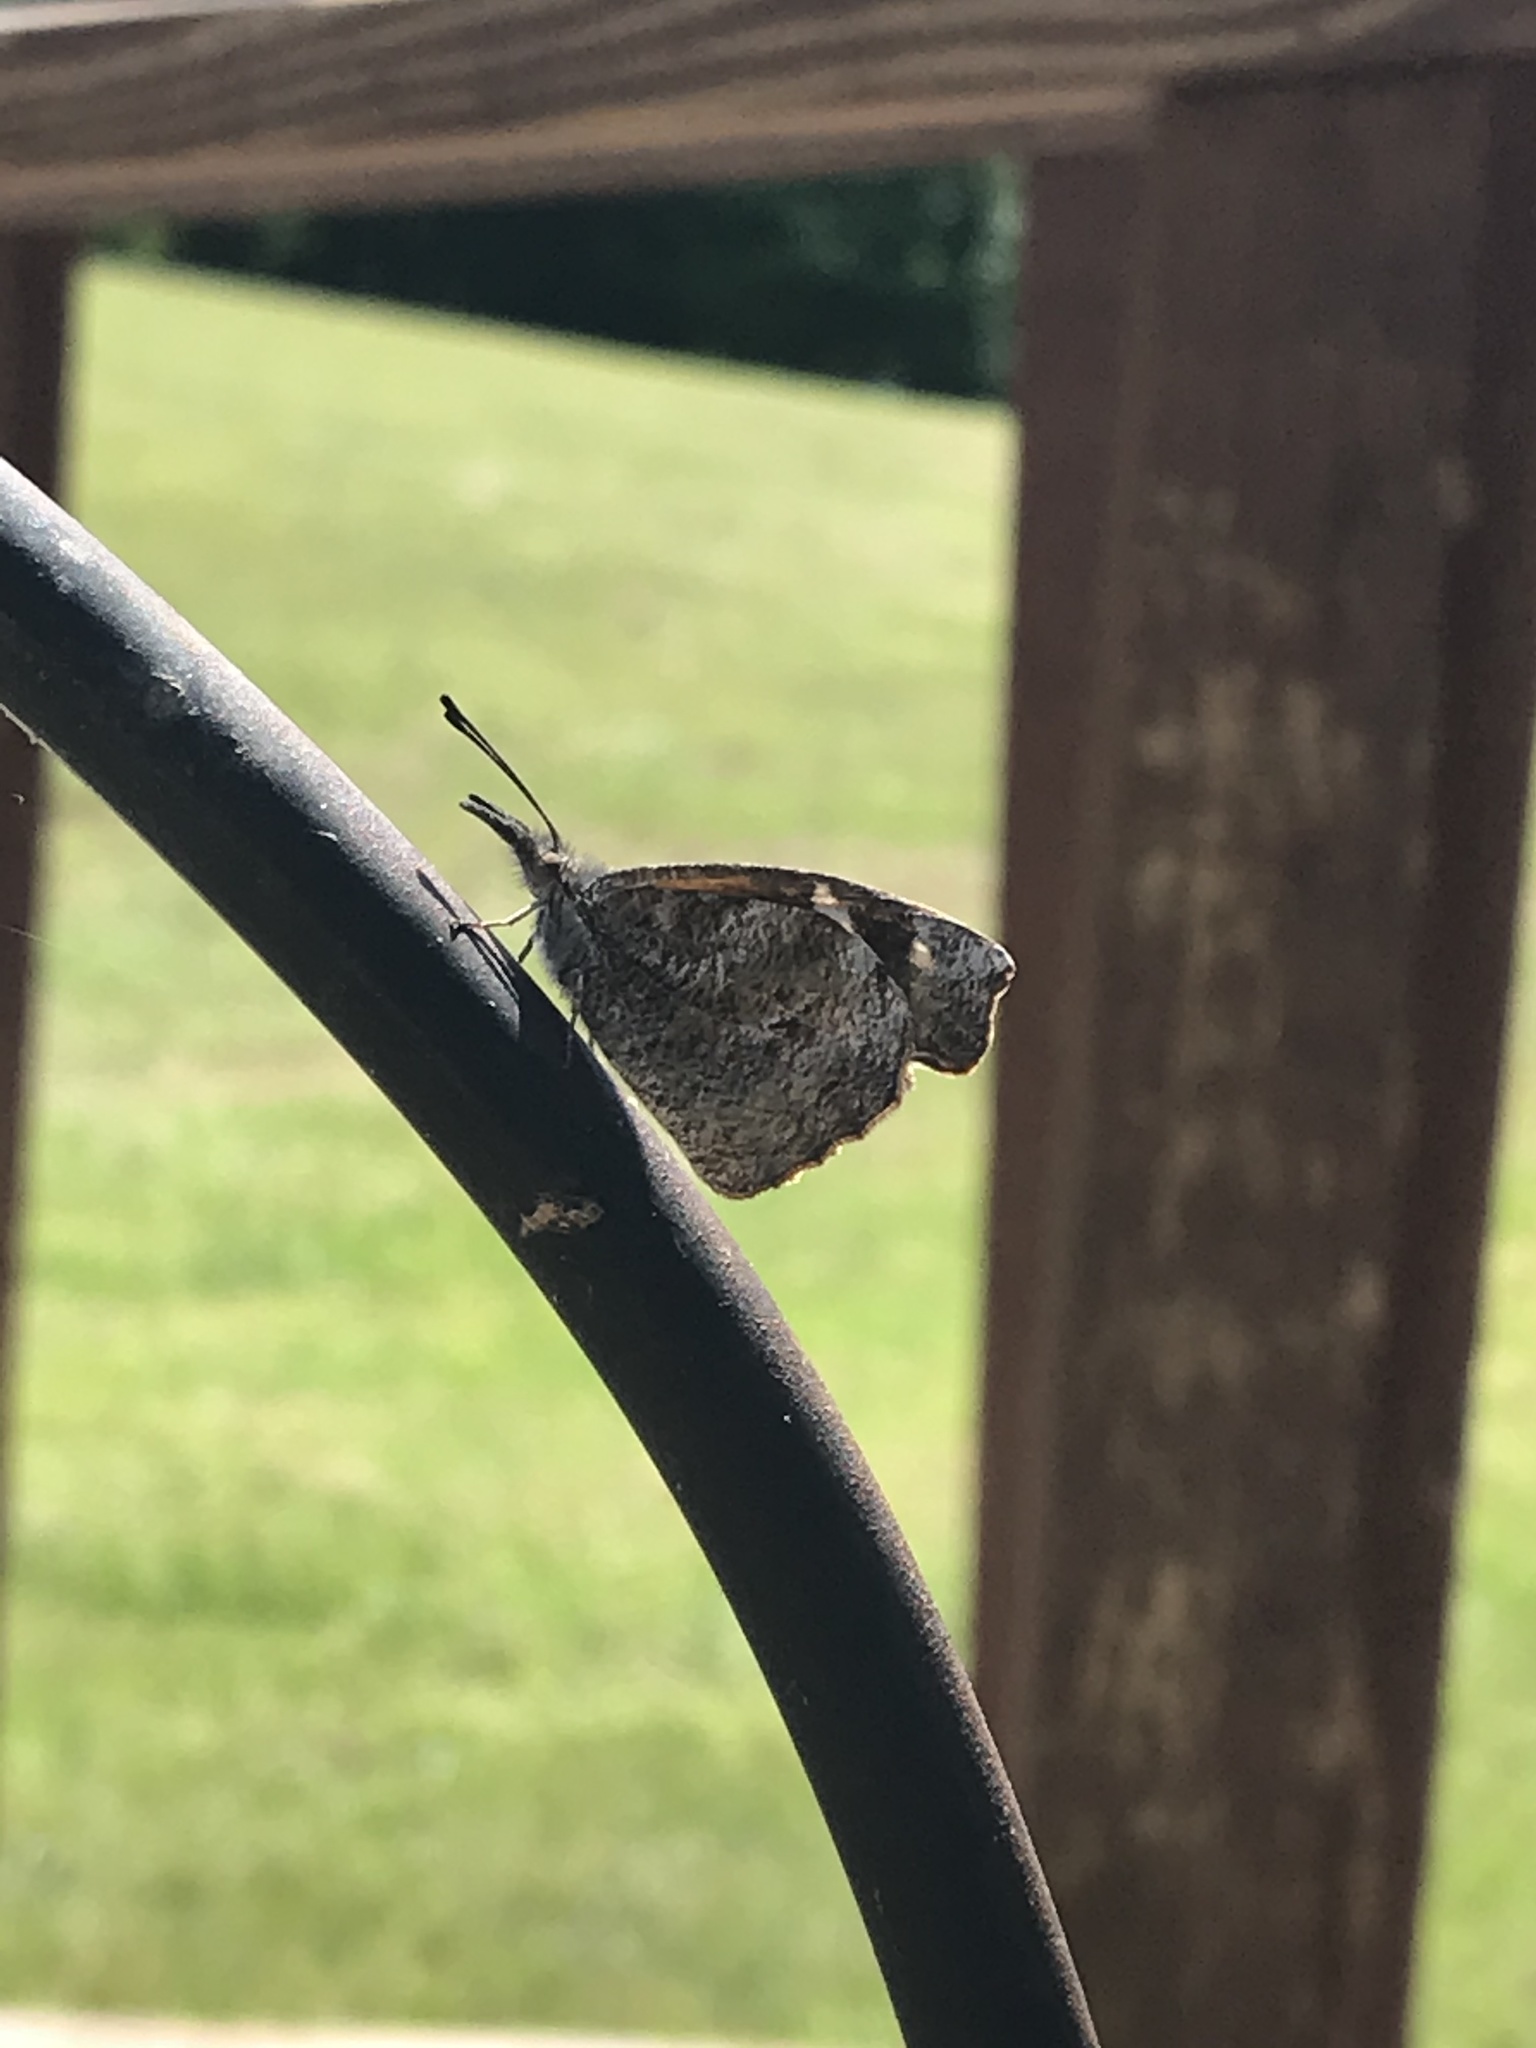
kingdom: Animalia
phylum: Arthropoda
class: Insecta
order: Lepidoptera
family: Nymphalidae
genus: Libytheana
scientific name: Libytheana carinenta
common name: American snout
